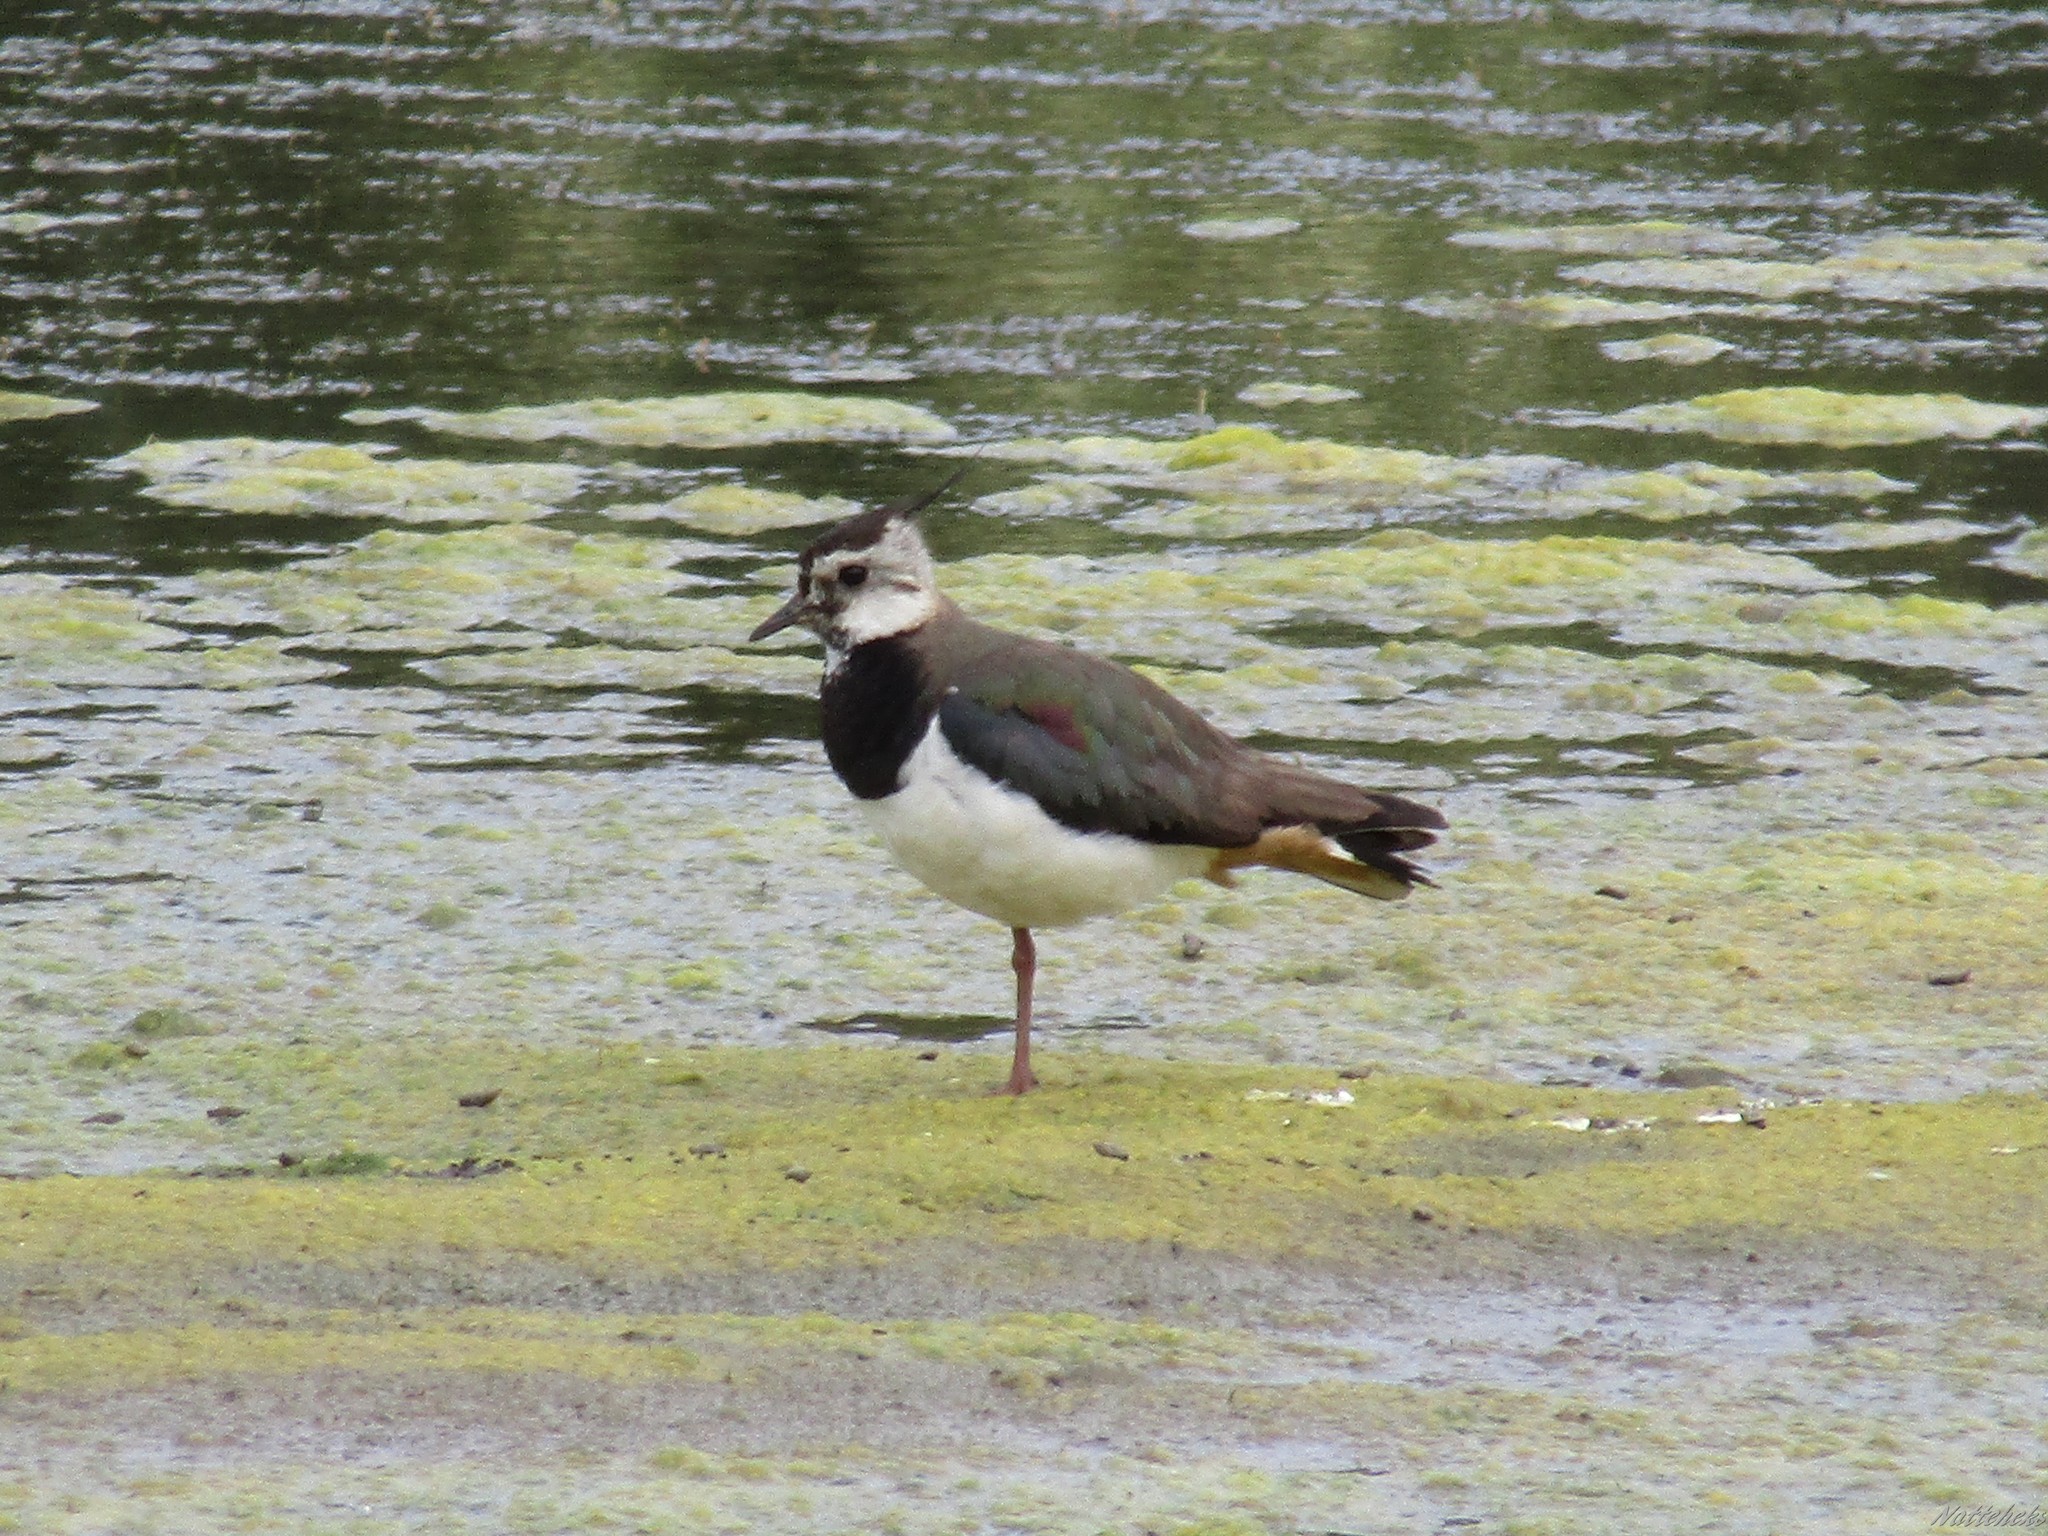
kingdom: Animalia
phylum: Chordata
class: Aves
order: Charadriiformes
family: Charadriidae
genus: Vanellus
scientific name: Vanellus vanellus
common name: Northern lapwing
